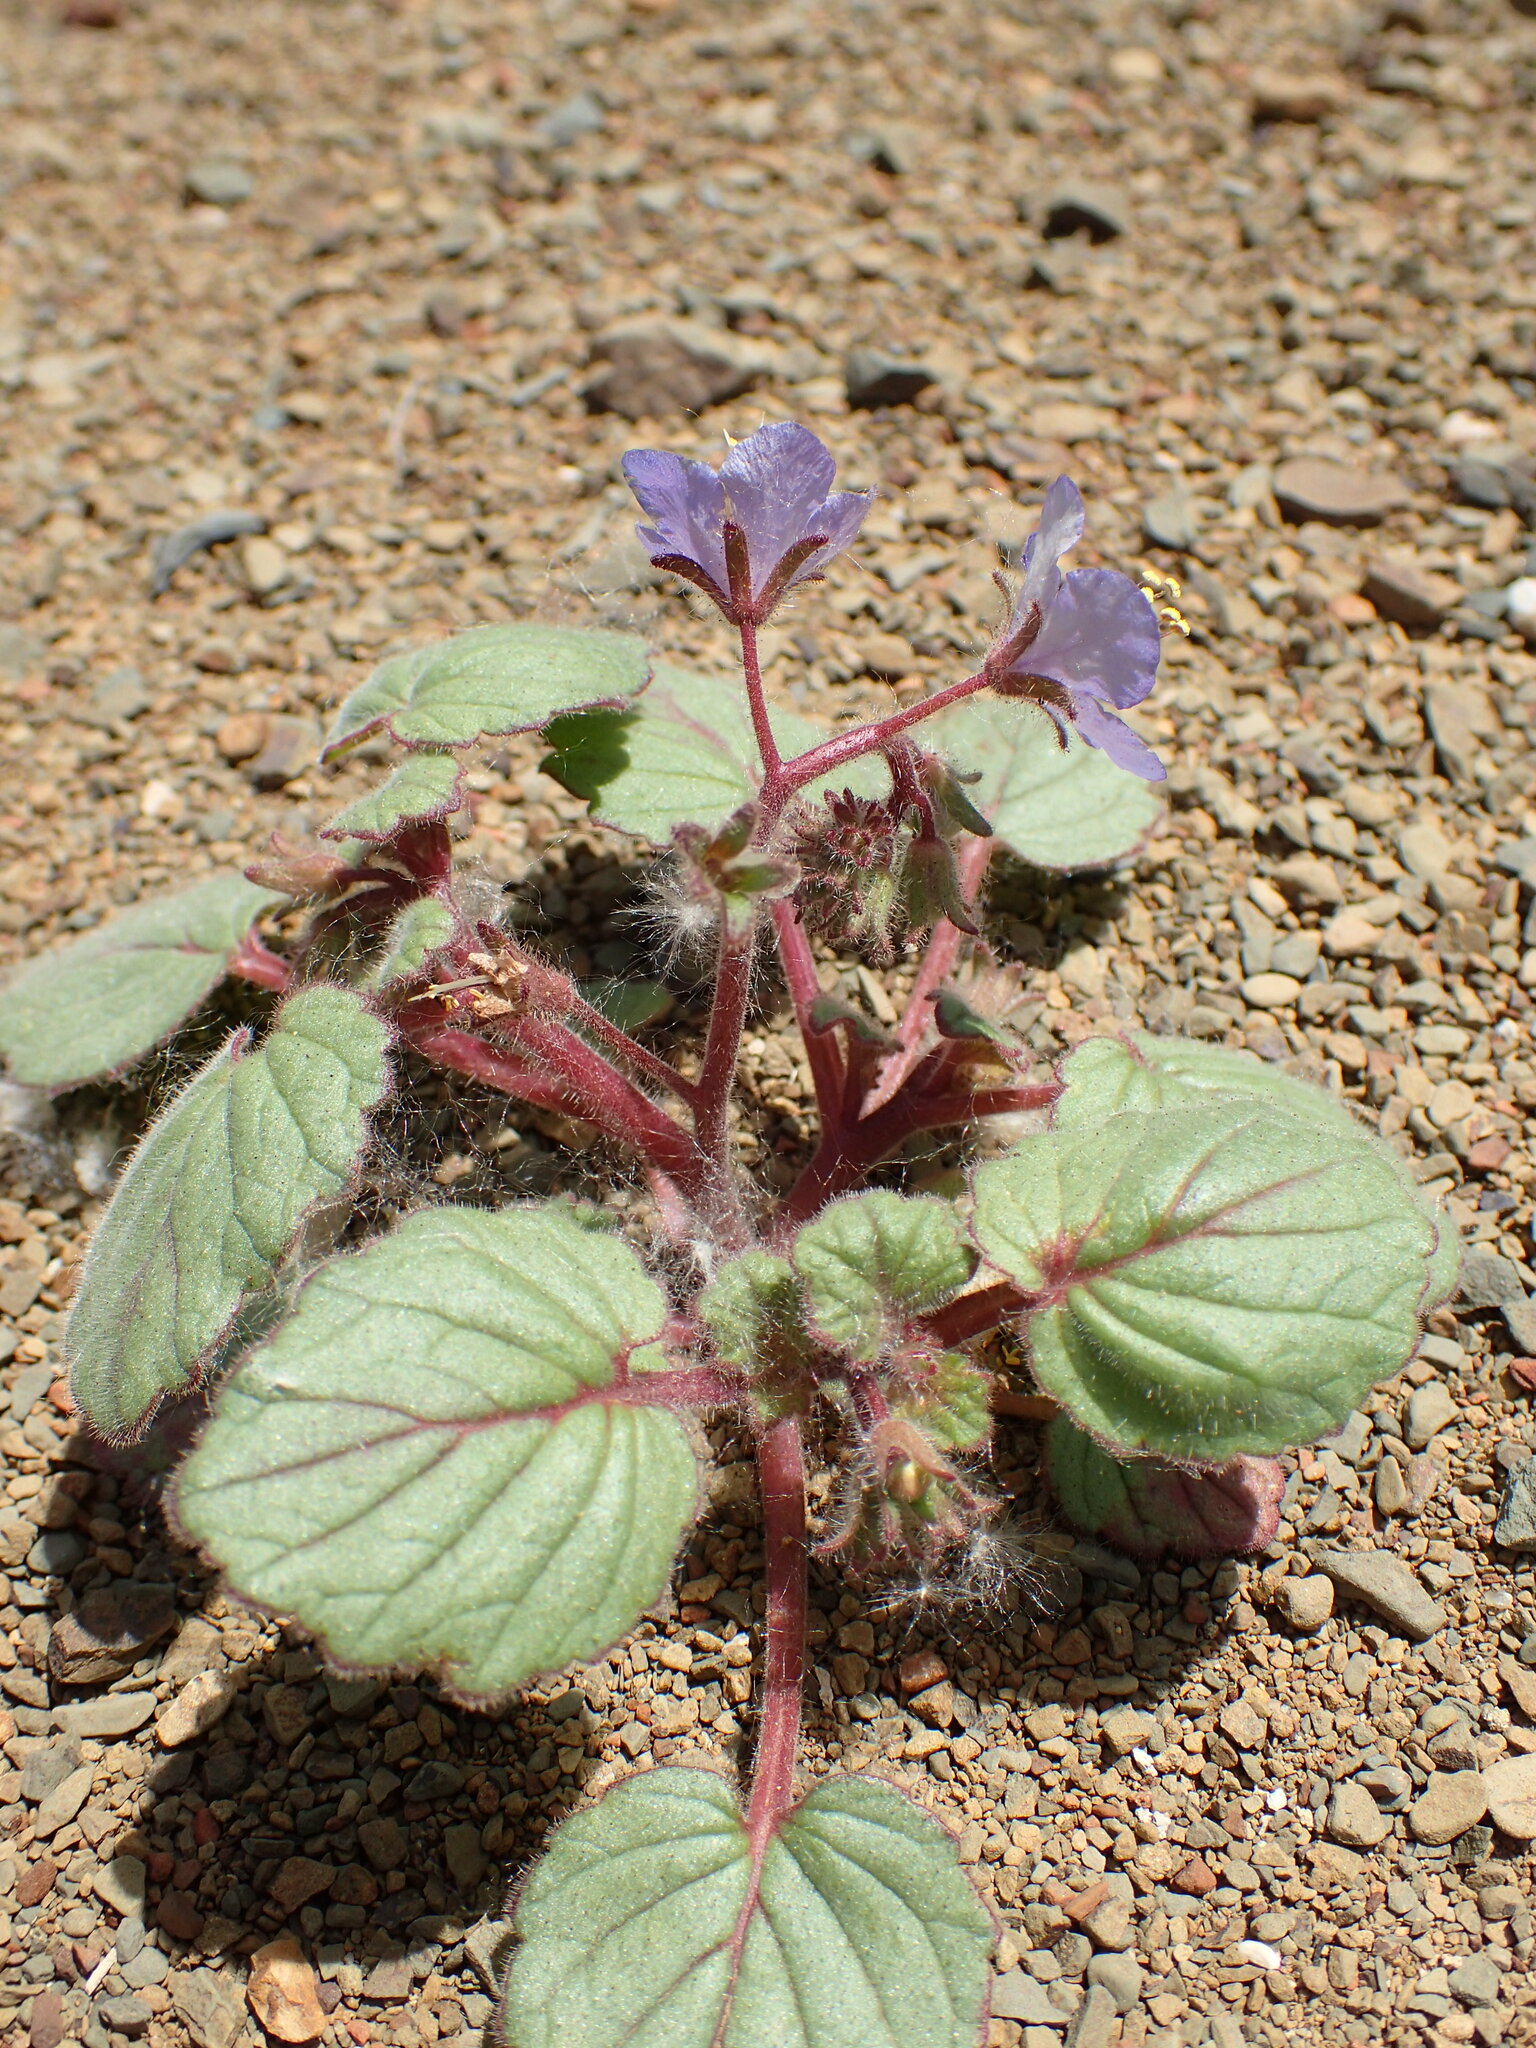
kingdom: Plantae
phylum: Tracheophyta
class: Magnoliopsida
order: Boraginales
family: Hydrophyllaceae
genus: Phacelia
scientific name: Phacelia longipes
